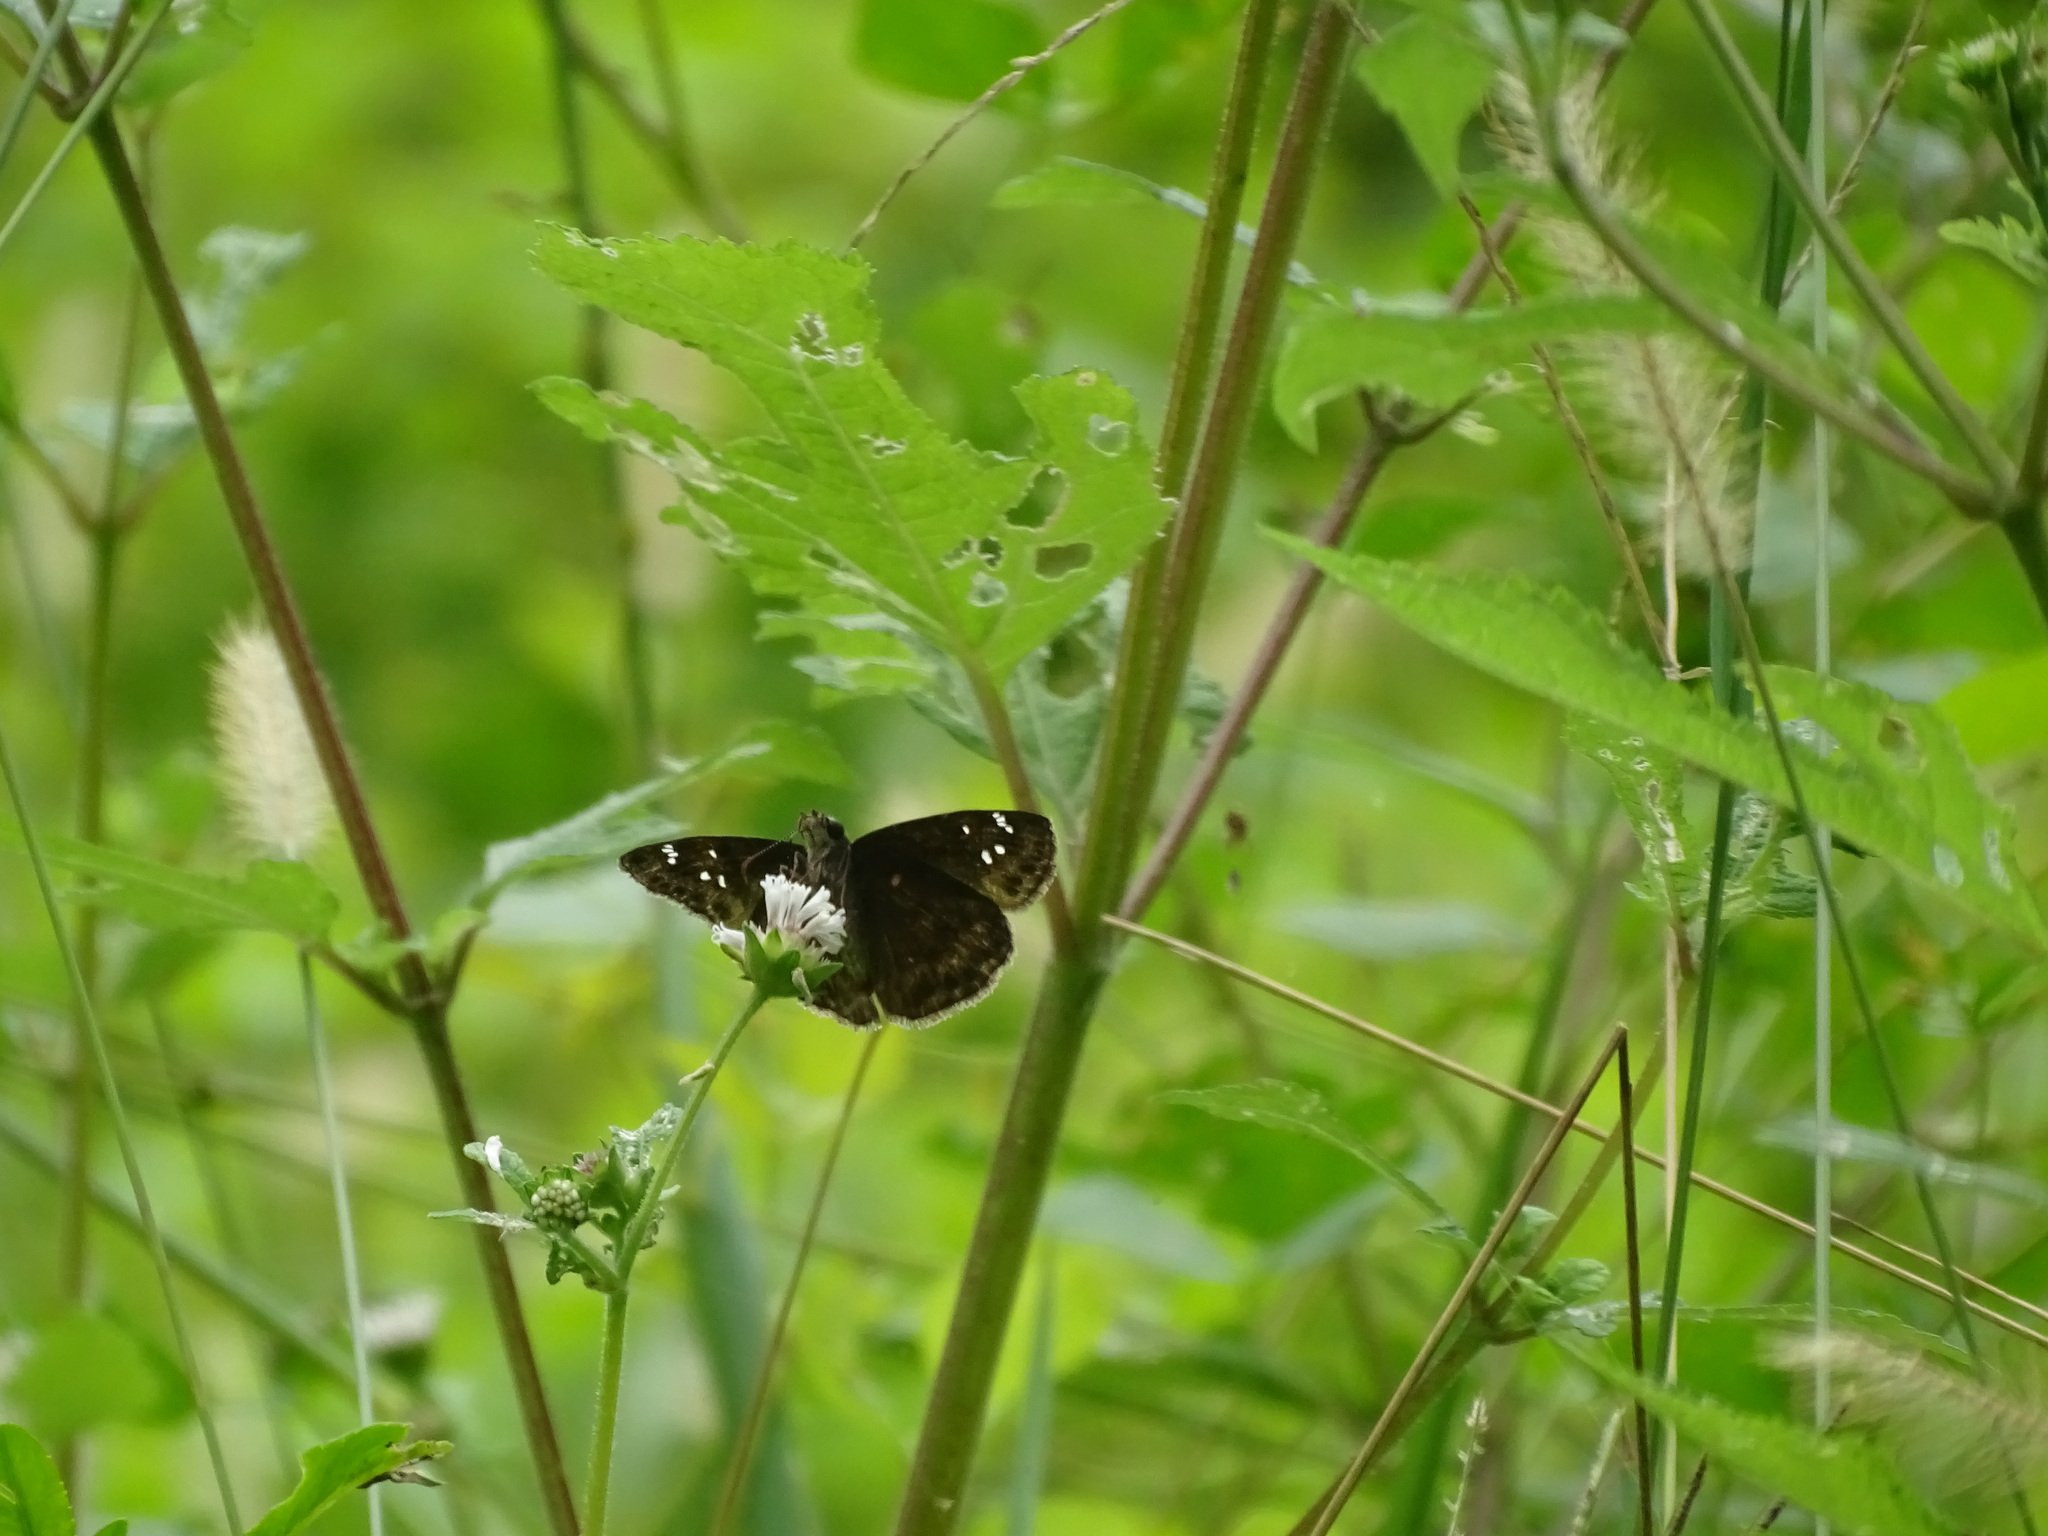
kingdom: Animalia
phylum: Arthropoda
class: Insecta
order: Lepidoptera
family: Hesperiidae
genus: Erynnis
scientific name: Erynnis horatius
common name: Horace's duskywing
